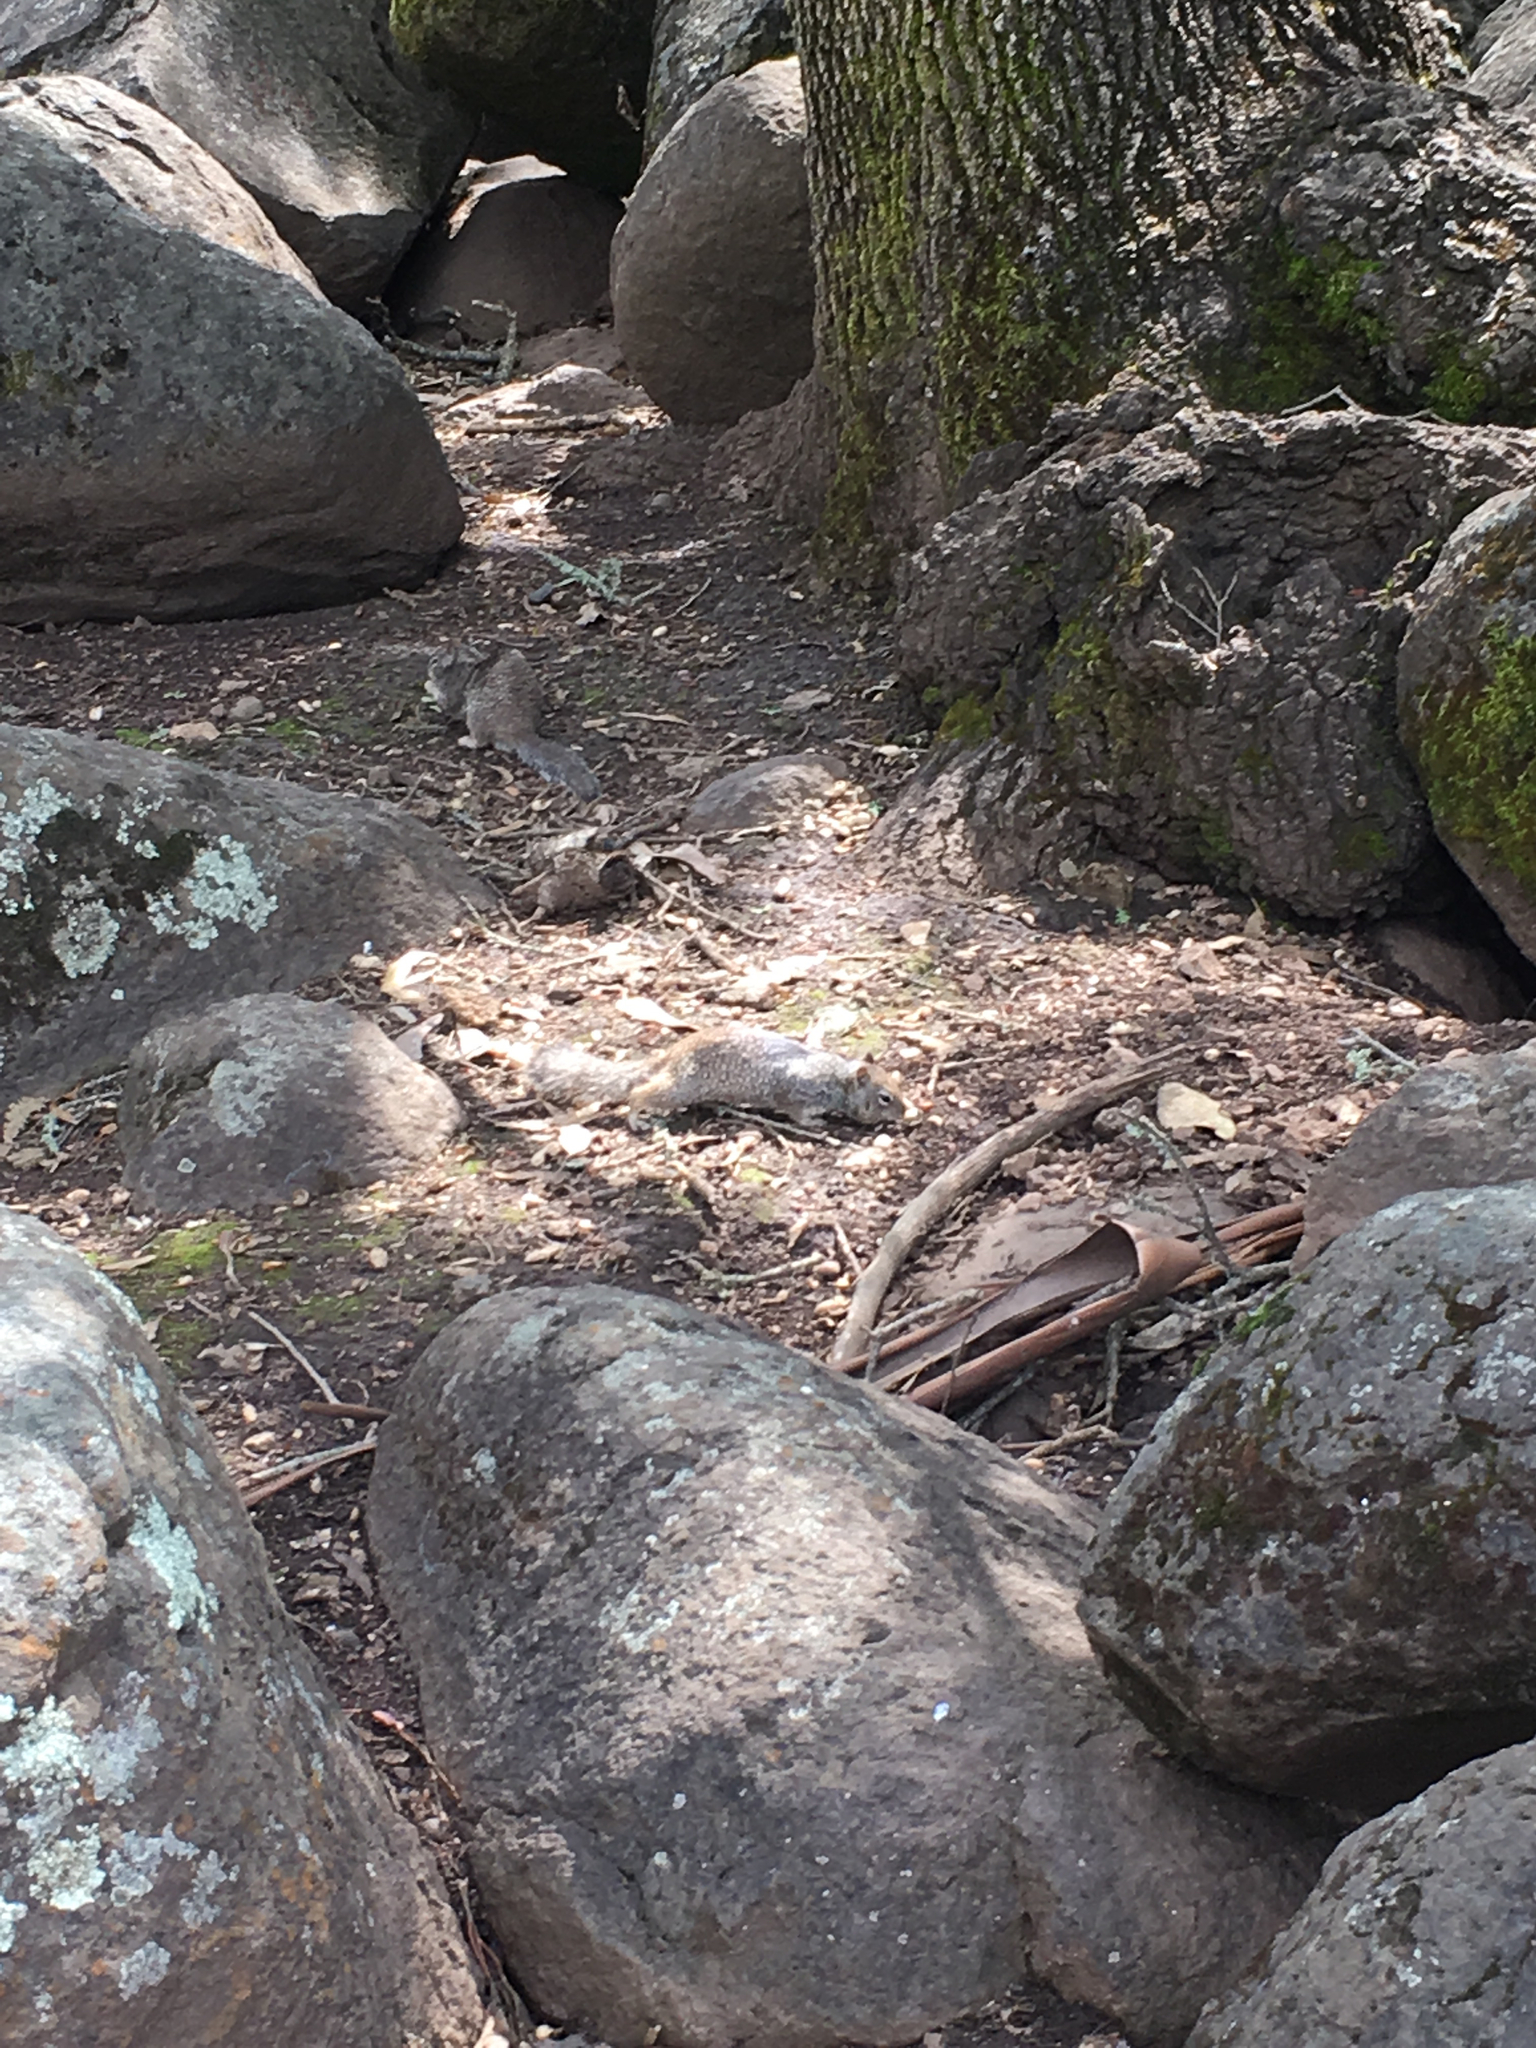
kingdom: Animalia
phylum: Chordata
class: Mammalia
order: Rodentia
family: Sciuridae
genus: Otospermophilus
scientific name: Otospermophilus beecheyi
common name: California ground squirrel
